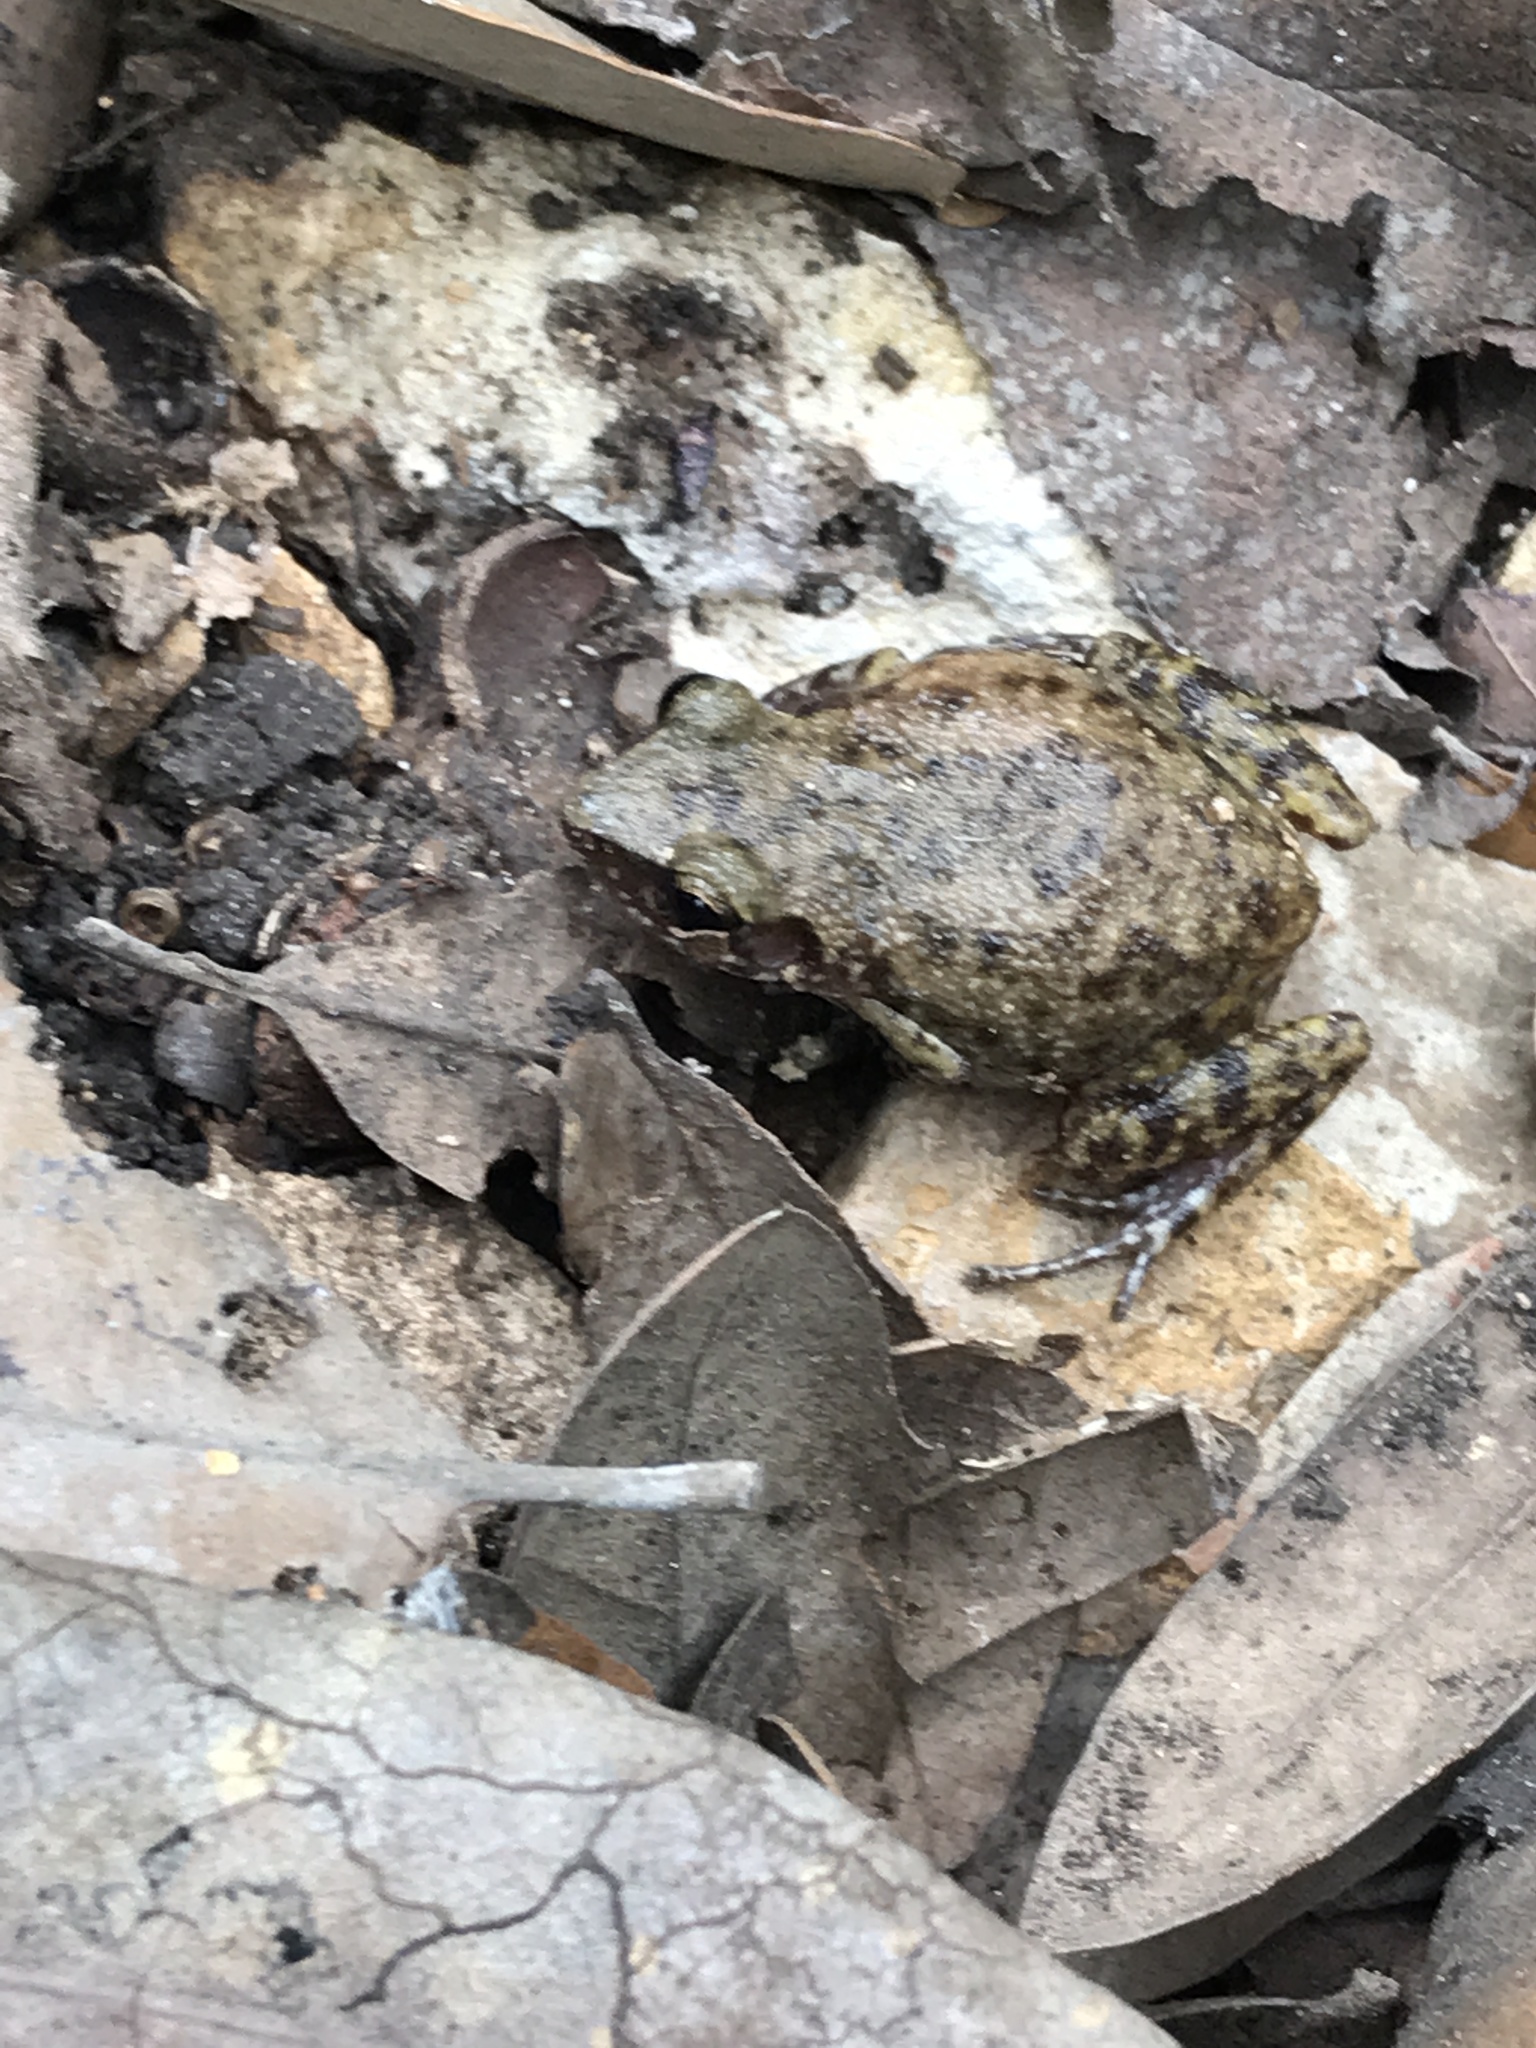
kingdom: Animalia
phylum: Chordata
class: Amphibia
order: Anura
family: Eleutherodactylidae
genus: Eleutherodactylus
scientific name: Eleutherodactylus campi
